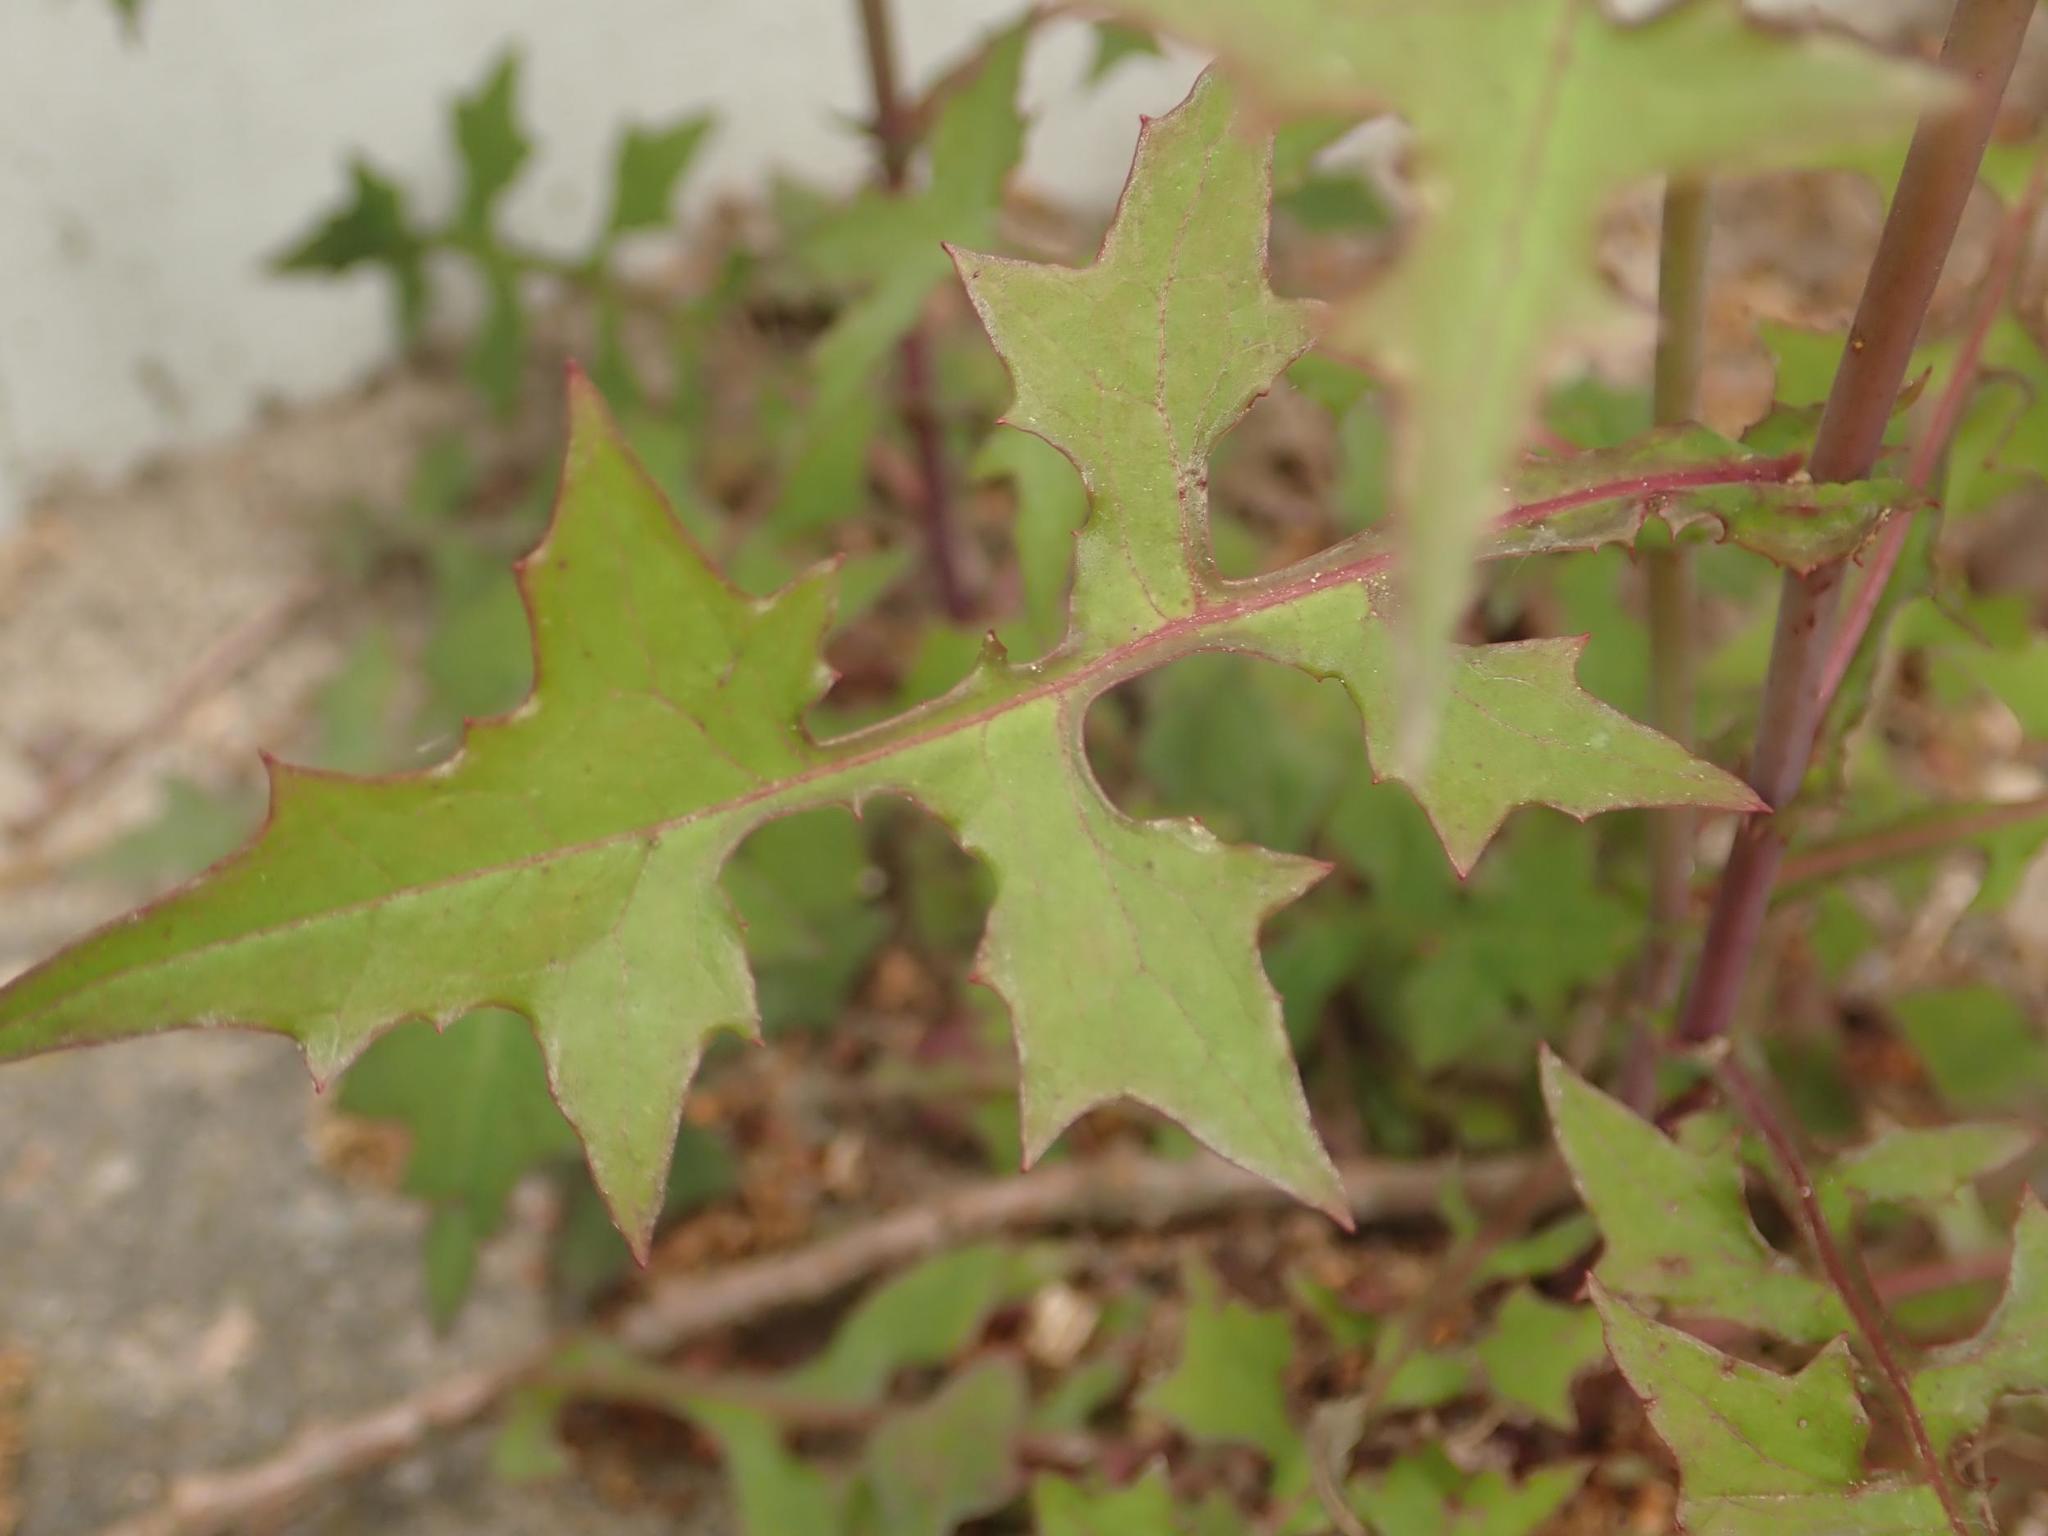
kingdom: Plantae
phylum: Tracheophyta
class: Magnoliopsida
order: Asterales
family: Asteraceae
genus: Mycelis
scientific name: Mycelis muralis
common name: Wall lettuce
